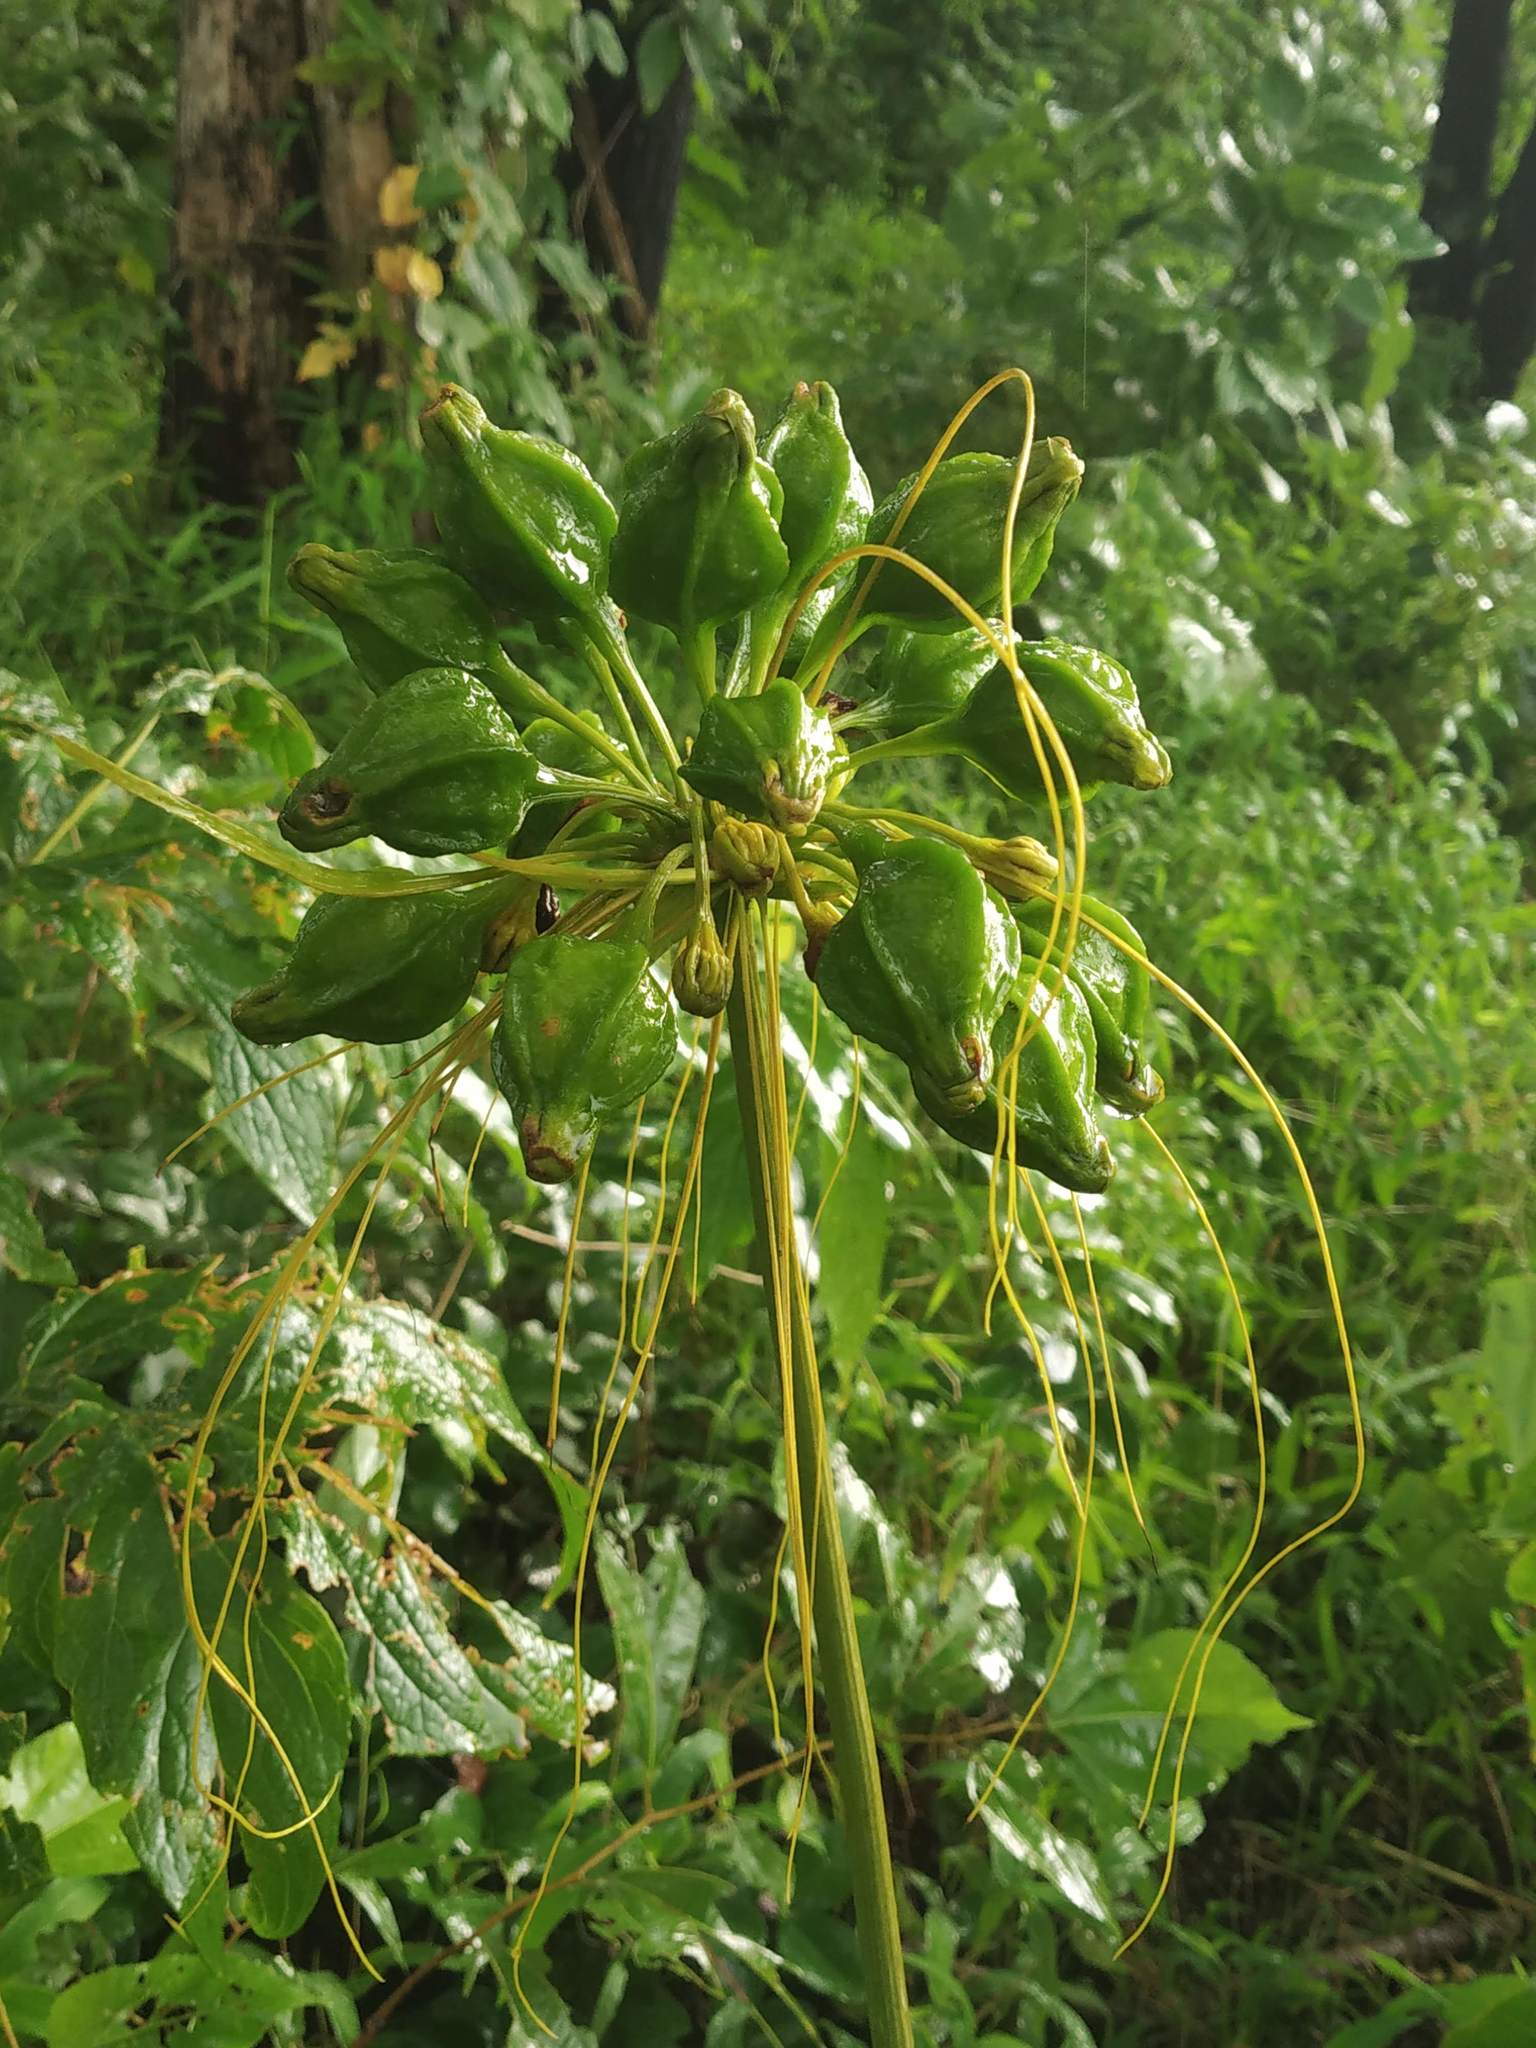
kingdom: Plantae
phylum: Tracheophyta
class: Liliopsida
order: Dioscoreales
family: Dioscoreaceae
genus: Tacca
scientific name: Tacca leontopetaloides
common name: Arrowroot
